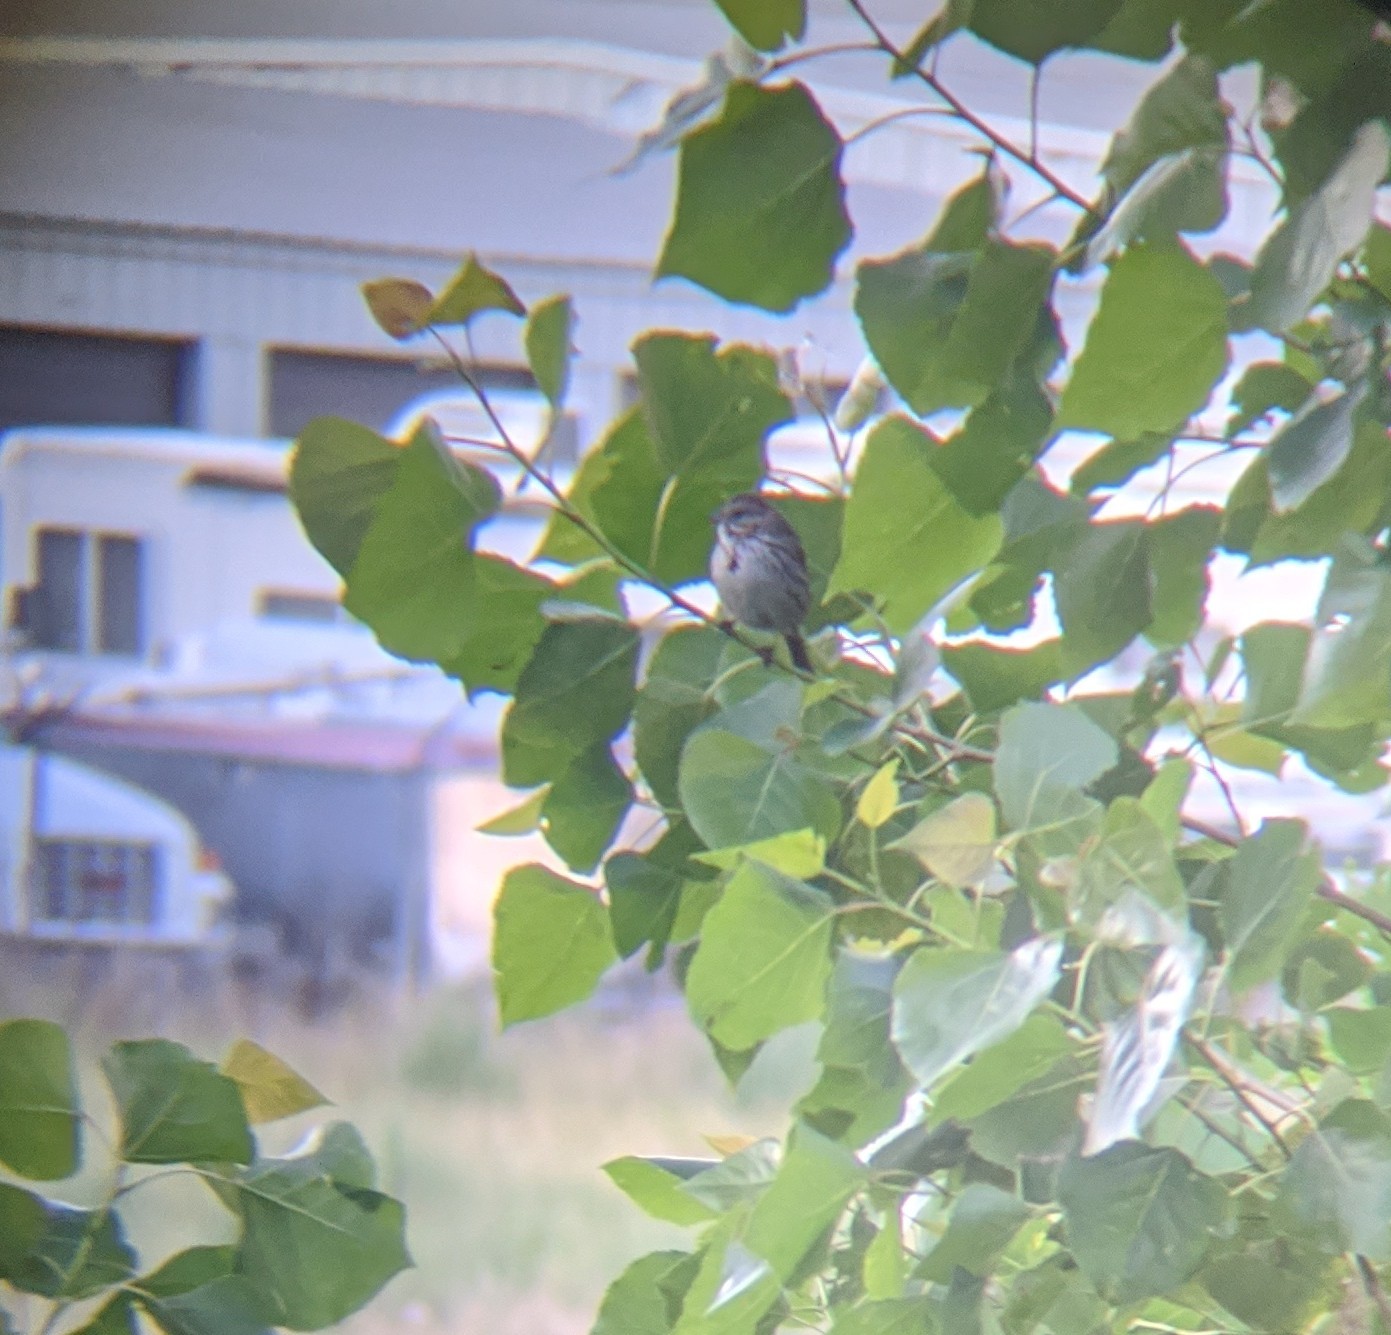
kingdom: Animalia
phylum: Chordata
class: Aves
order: Passeriformes
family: Passerellidae
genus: Melospiza
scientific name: Melospiza melodia
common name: Song sparrow
